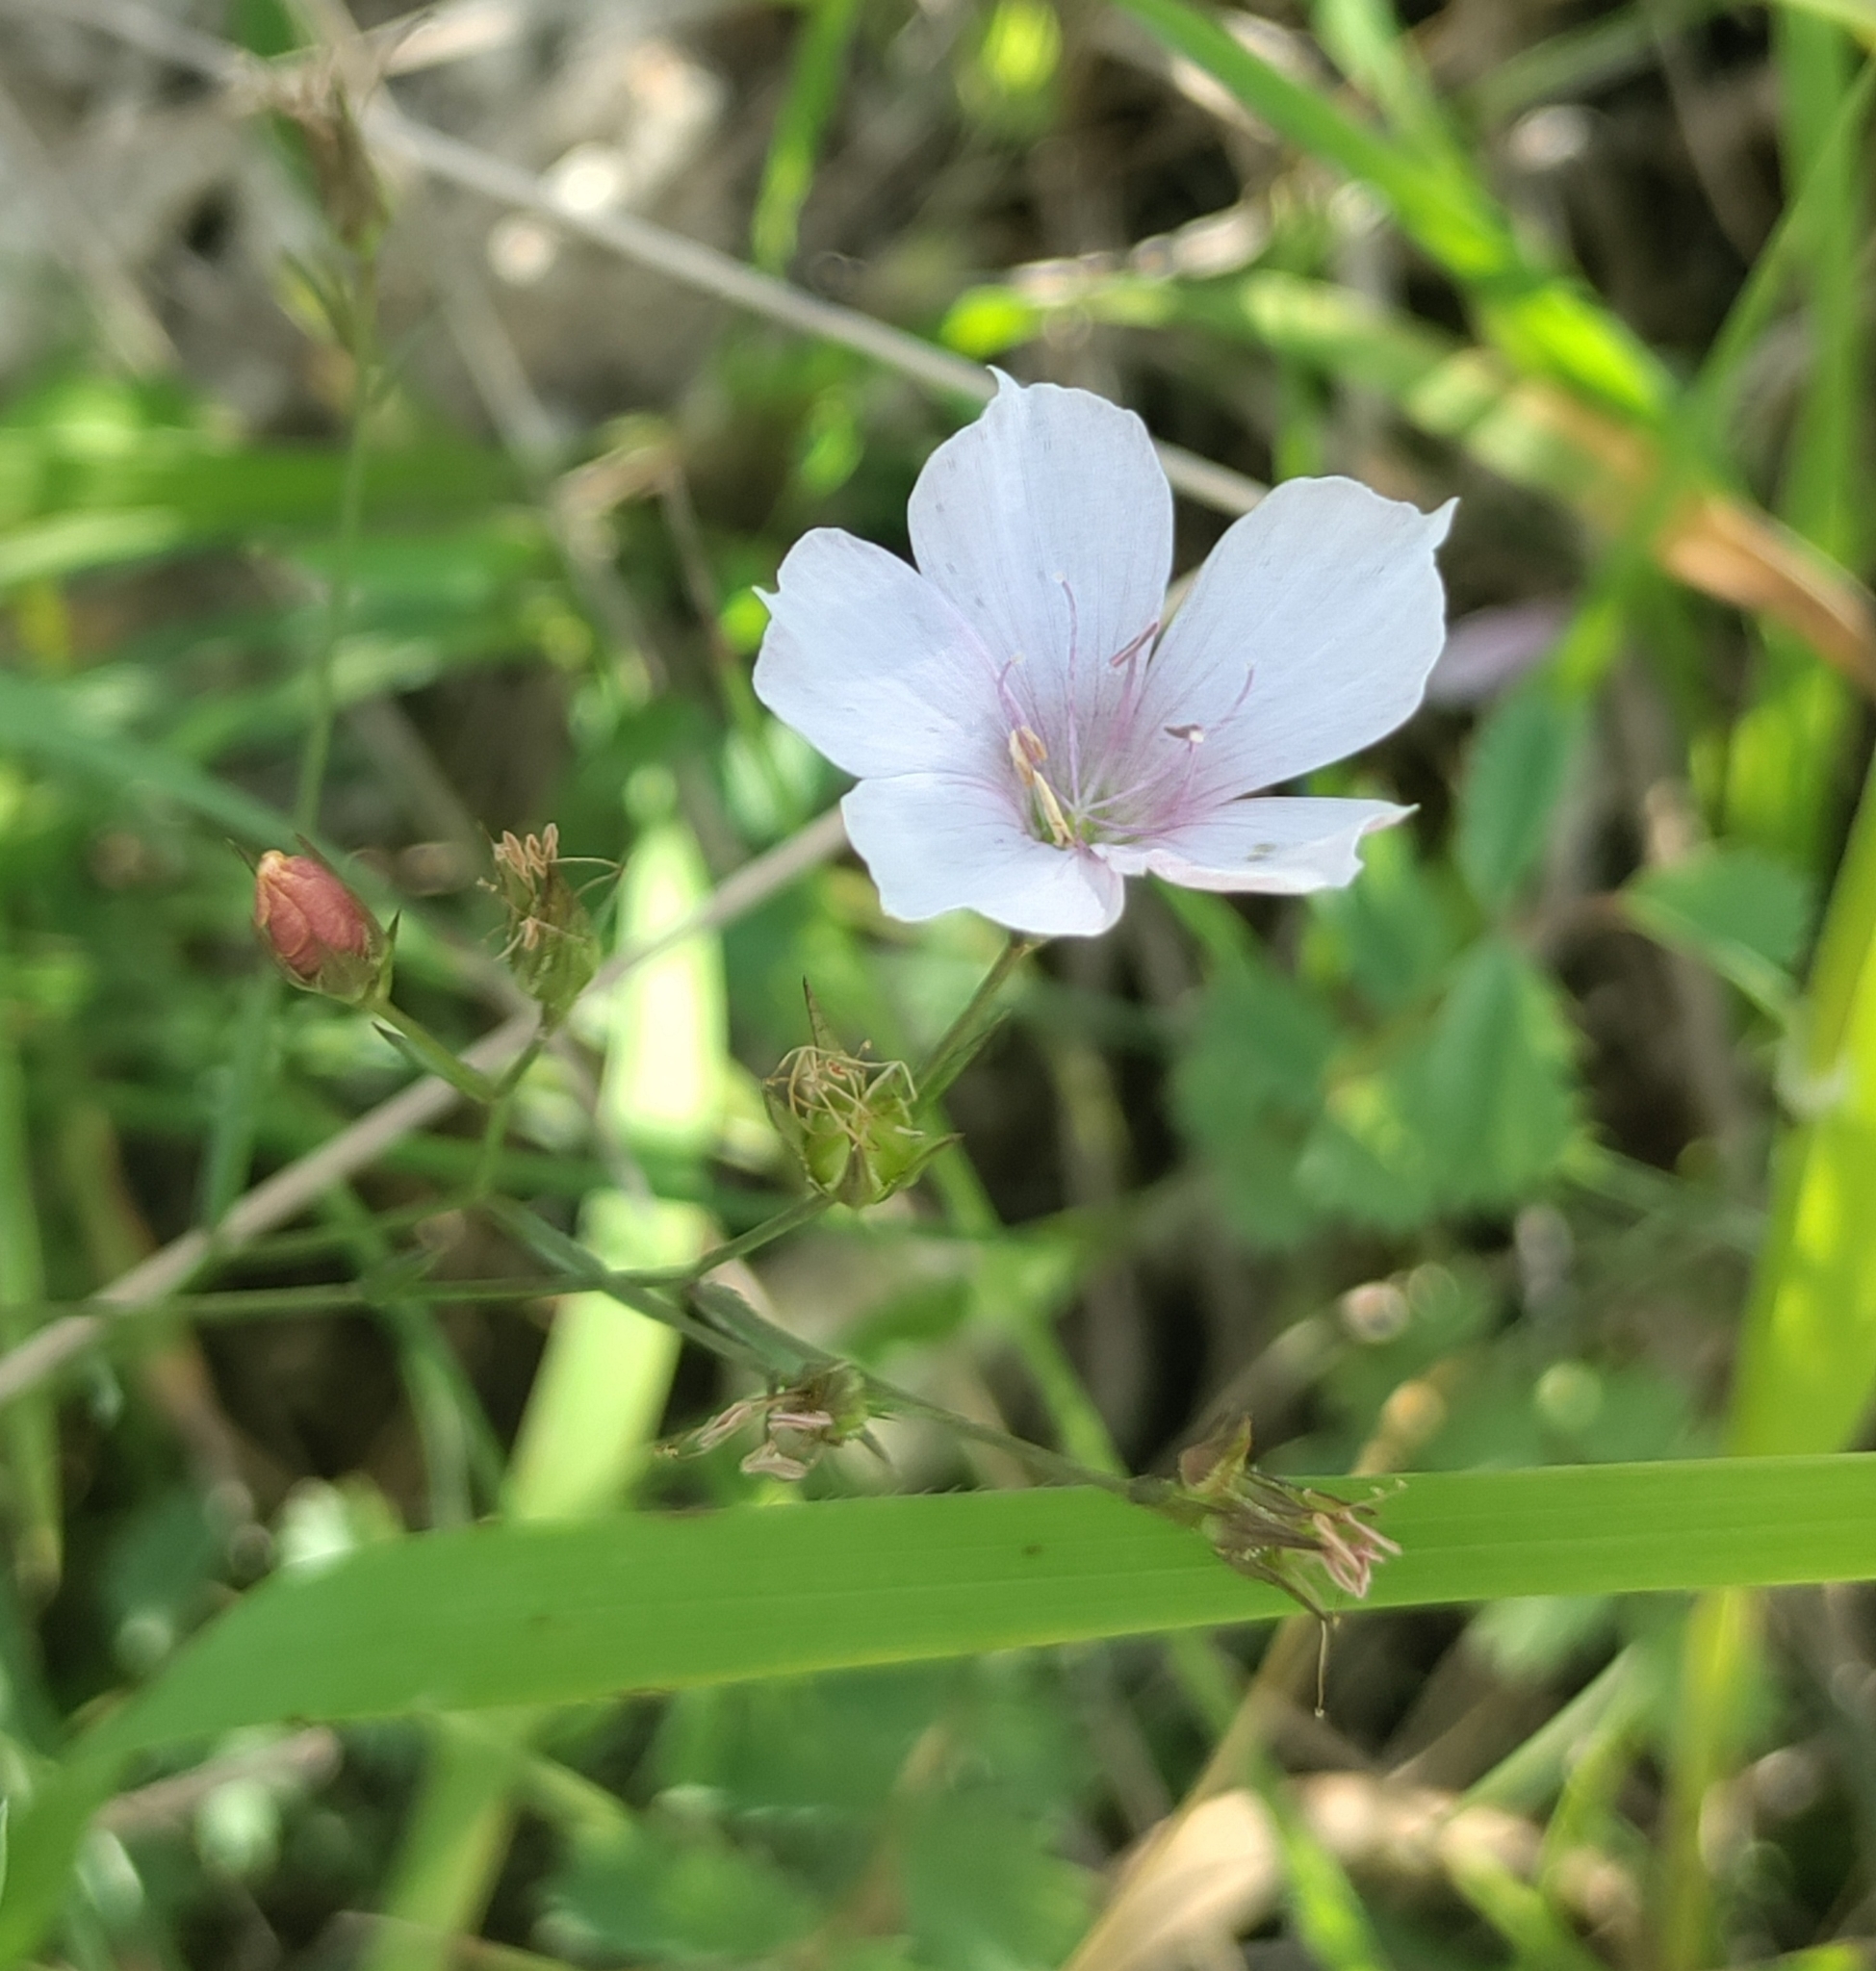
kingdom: Plantae
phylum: Tracheophyta
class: Magnoliopsida
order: Malpighiales
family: Linaceae
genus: Linum
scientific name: Linum tenuifolium
